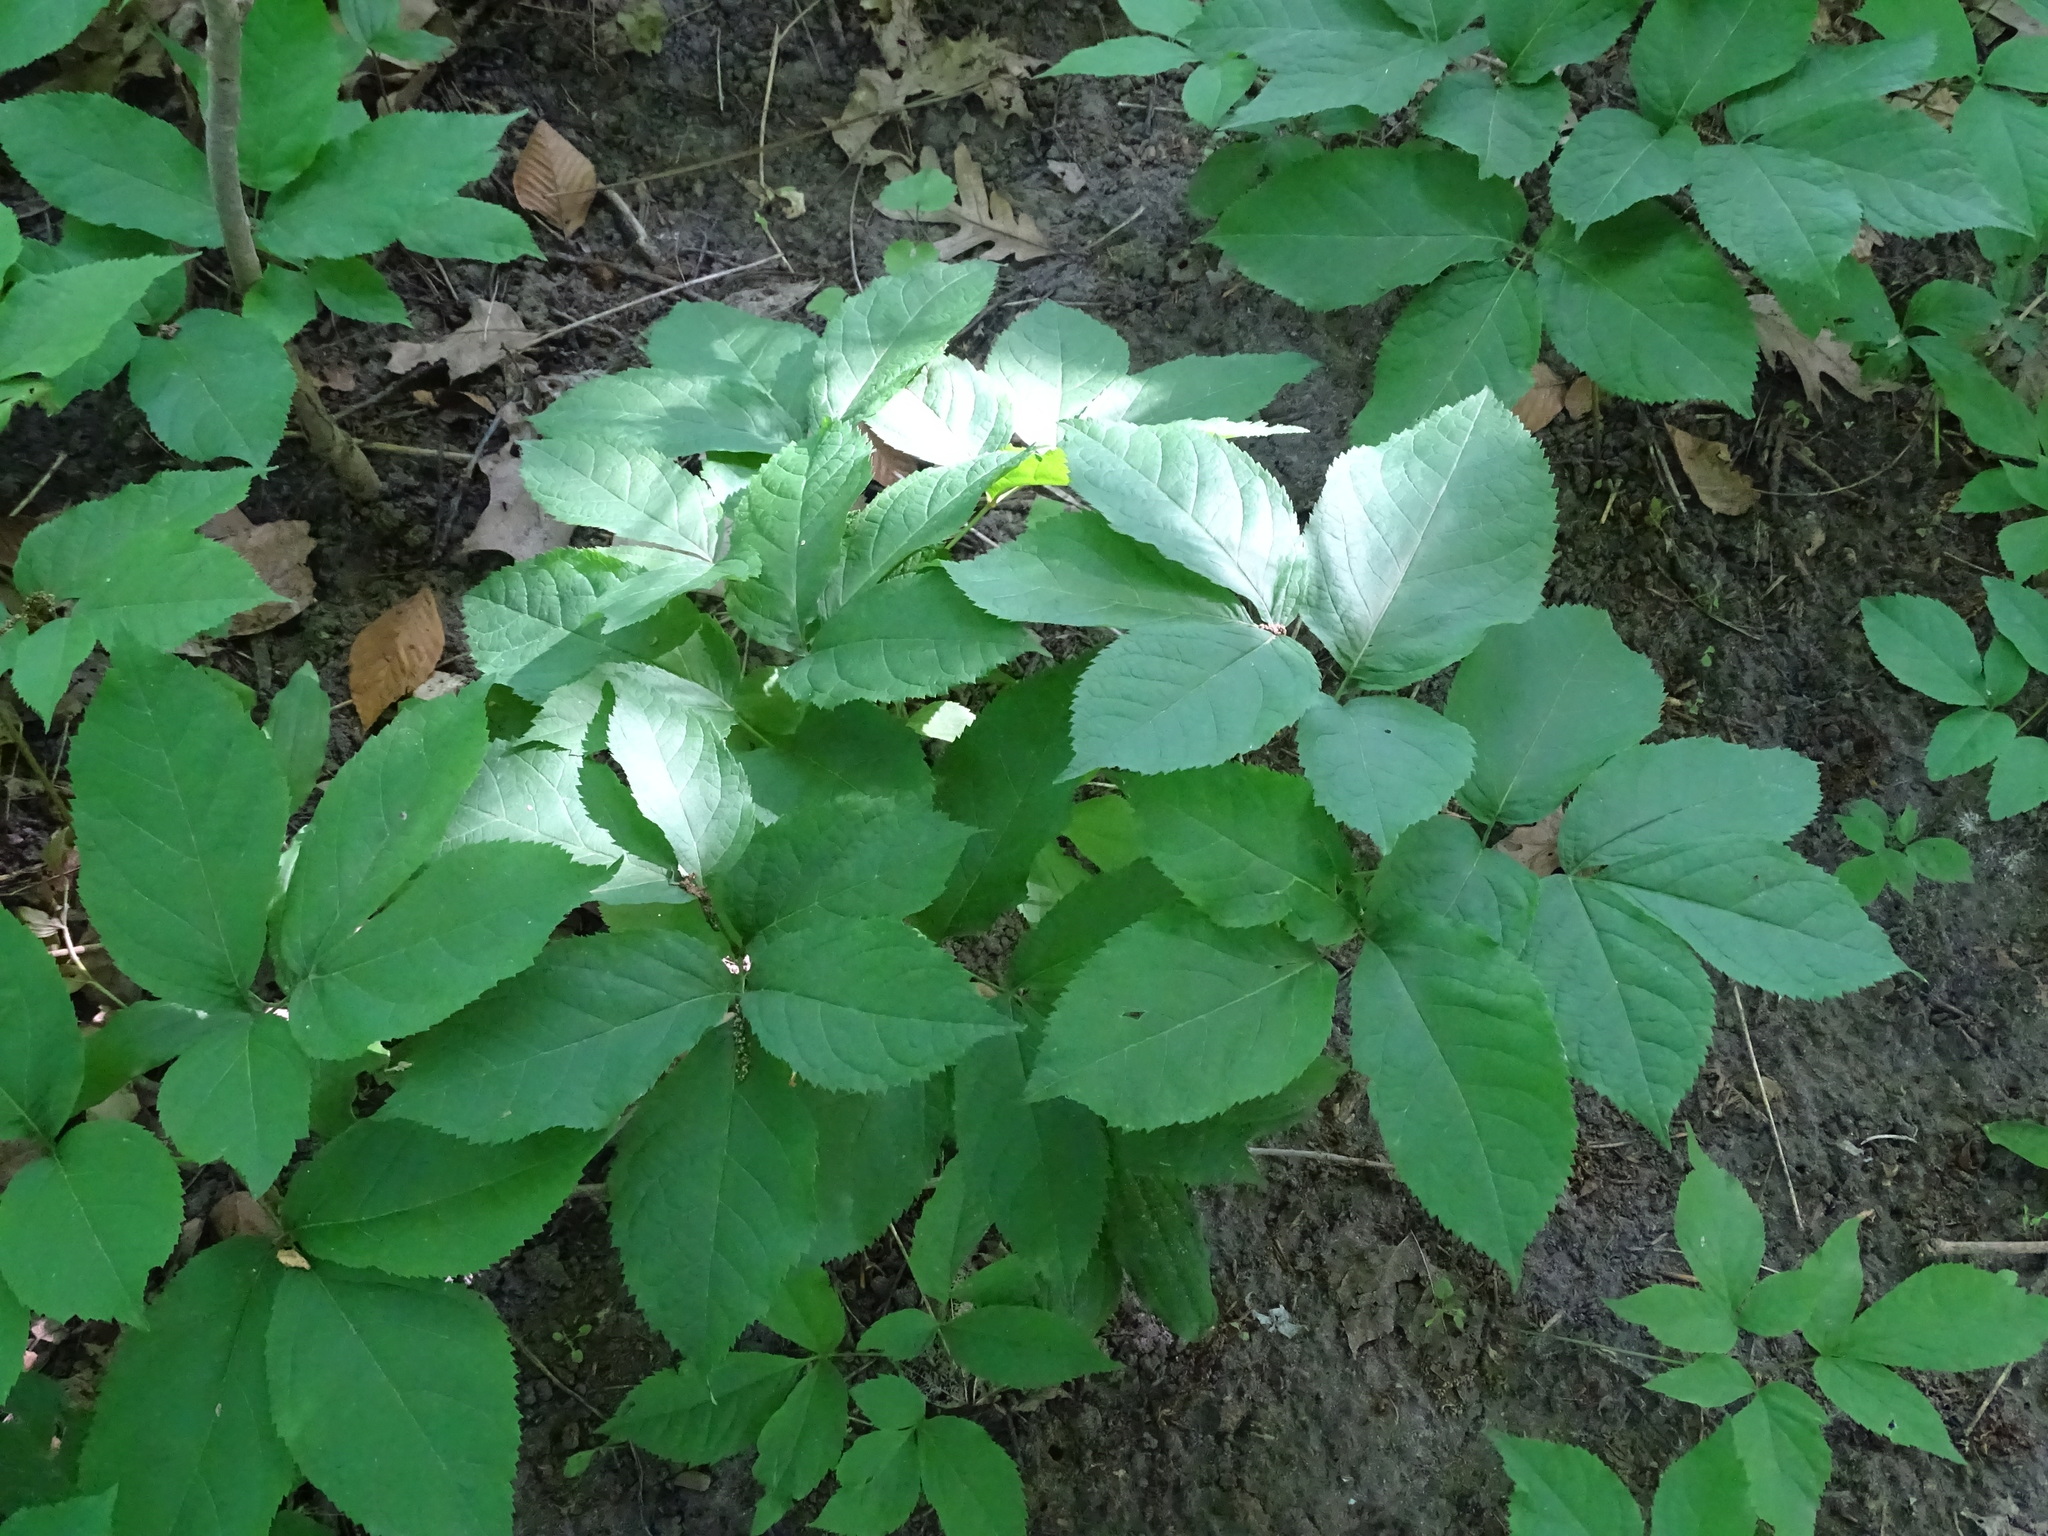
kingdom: Plantae
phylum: Tracheophyta
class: Magnoliopsida
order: Apiales
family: Araliaceae
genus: Aralia
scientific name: Aralia nudicaulis
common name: Wild sarsaparilla
